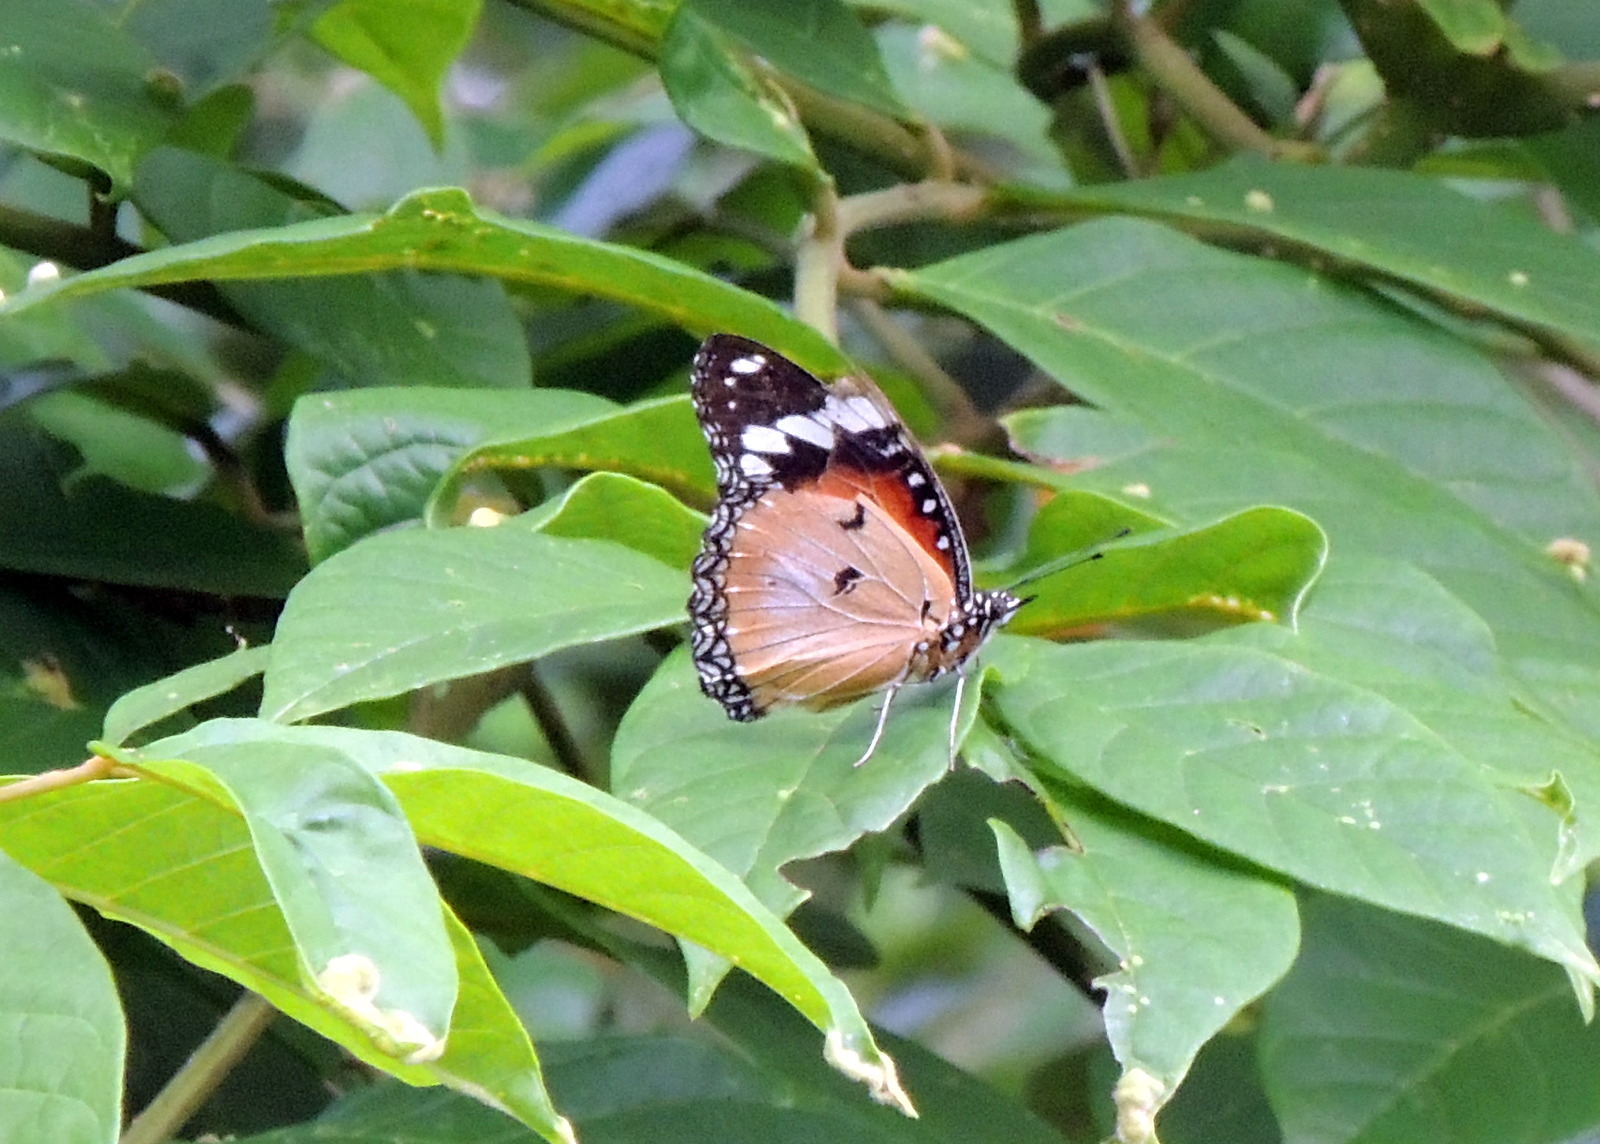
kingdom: Animalia
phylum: Arthropoda
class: Insecta
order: Lepidoptera
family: Nymphalidae
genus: Hypolimnas
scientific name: Hypolimnas misippus
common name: False plain tiger
